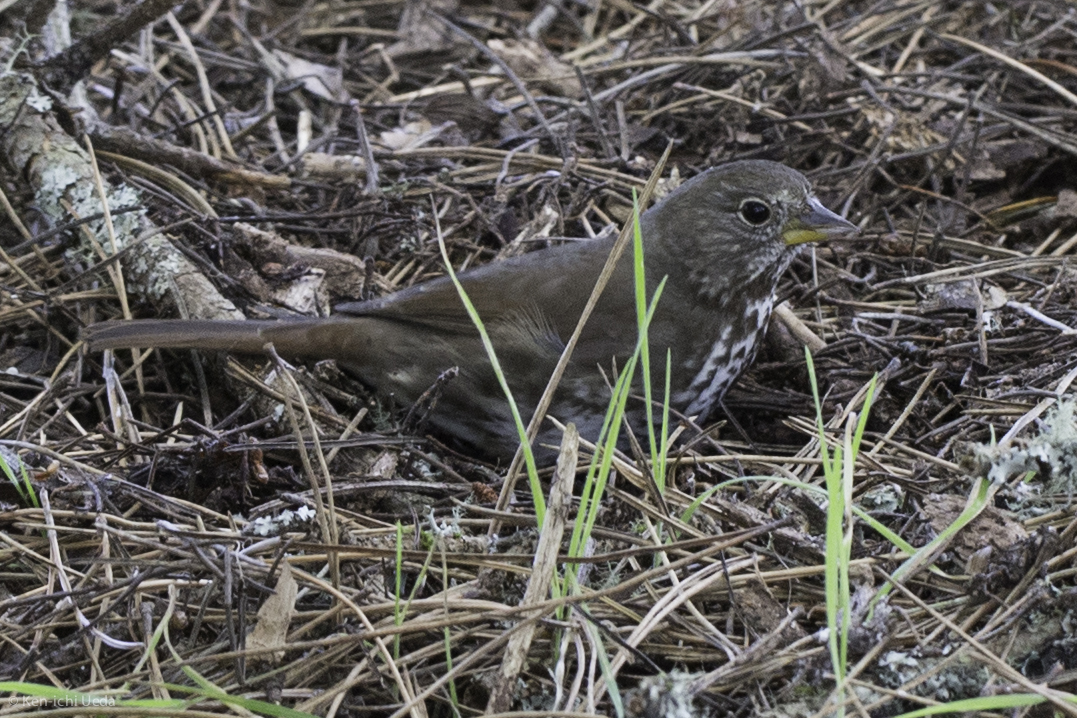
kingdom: Animalia
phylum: Chordata
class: Aves
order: Passeriformes
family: Passerellidae
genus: Passerella
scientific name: Passerella iliaca
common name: Fox sparrow
